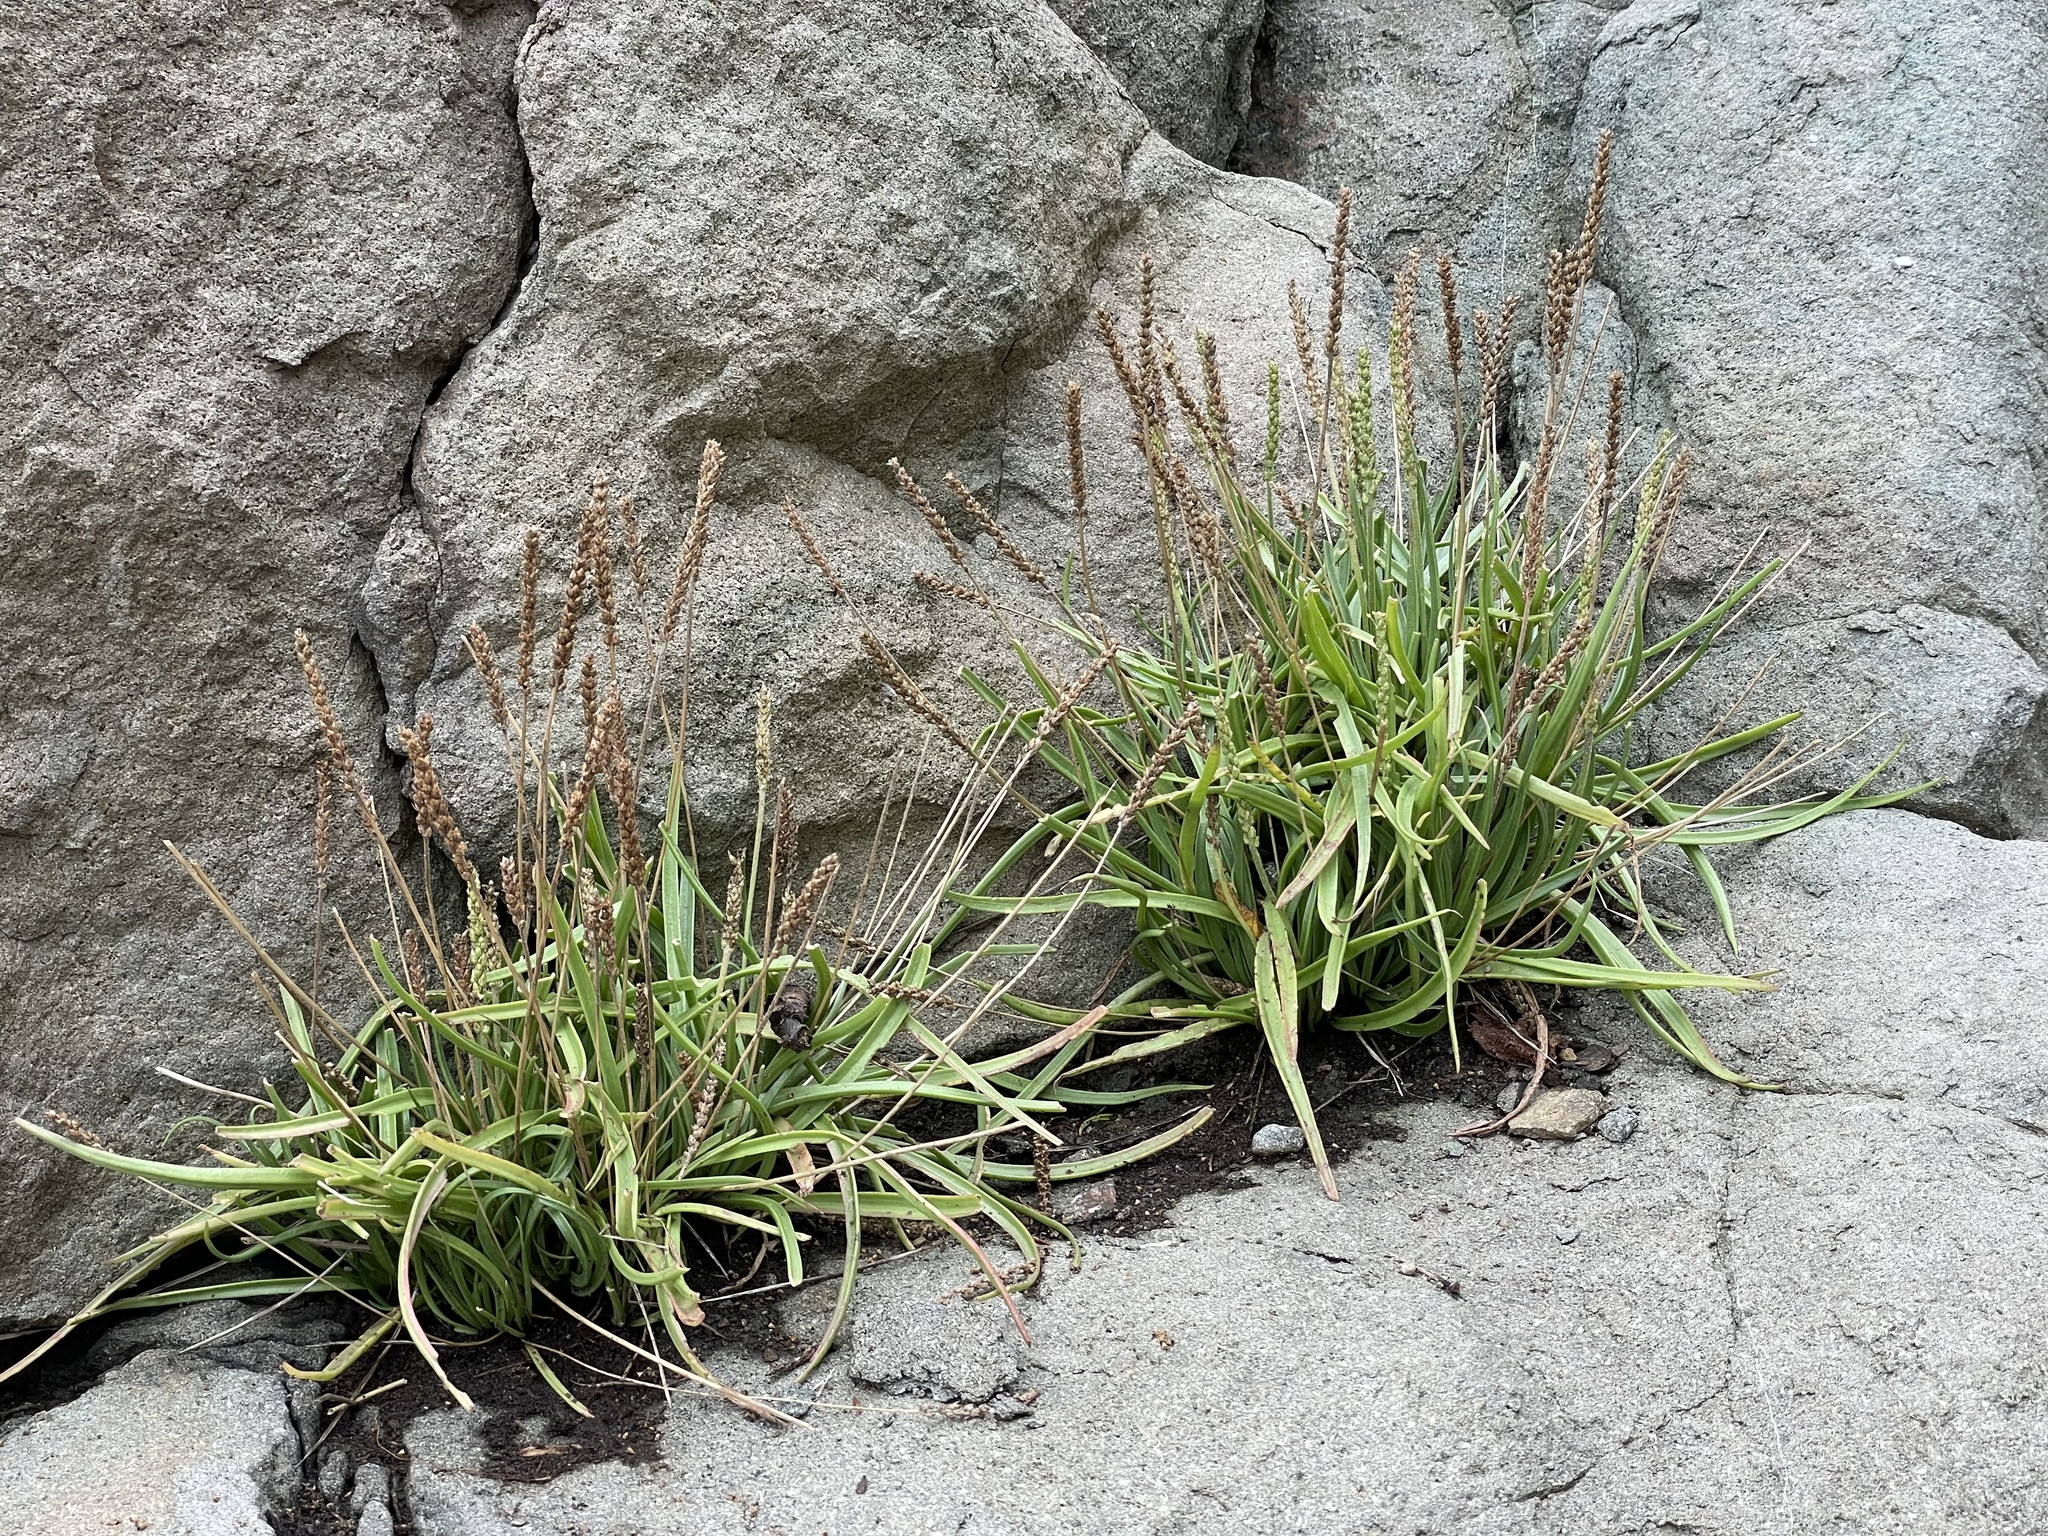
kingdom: Plantae
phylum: Tracheophyta
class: Magnoliopsida
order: Lamiales
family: Plantaginaceae
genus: Plantago
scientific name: Plantago maritima
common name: Sea plantain
